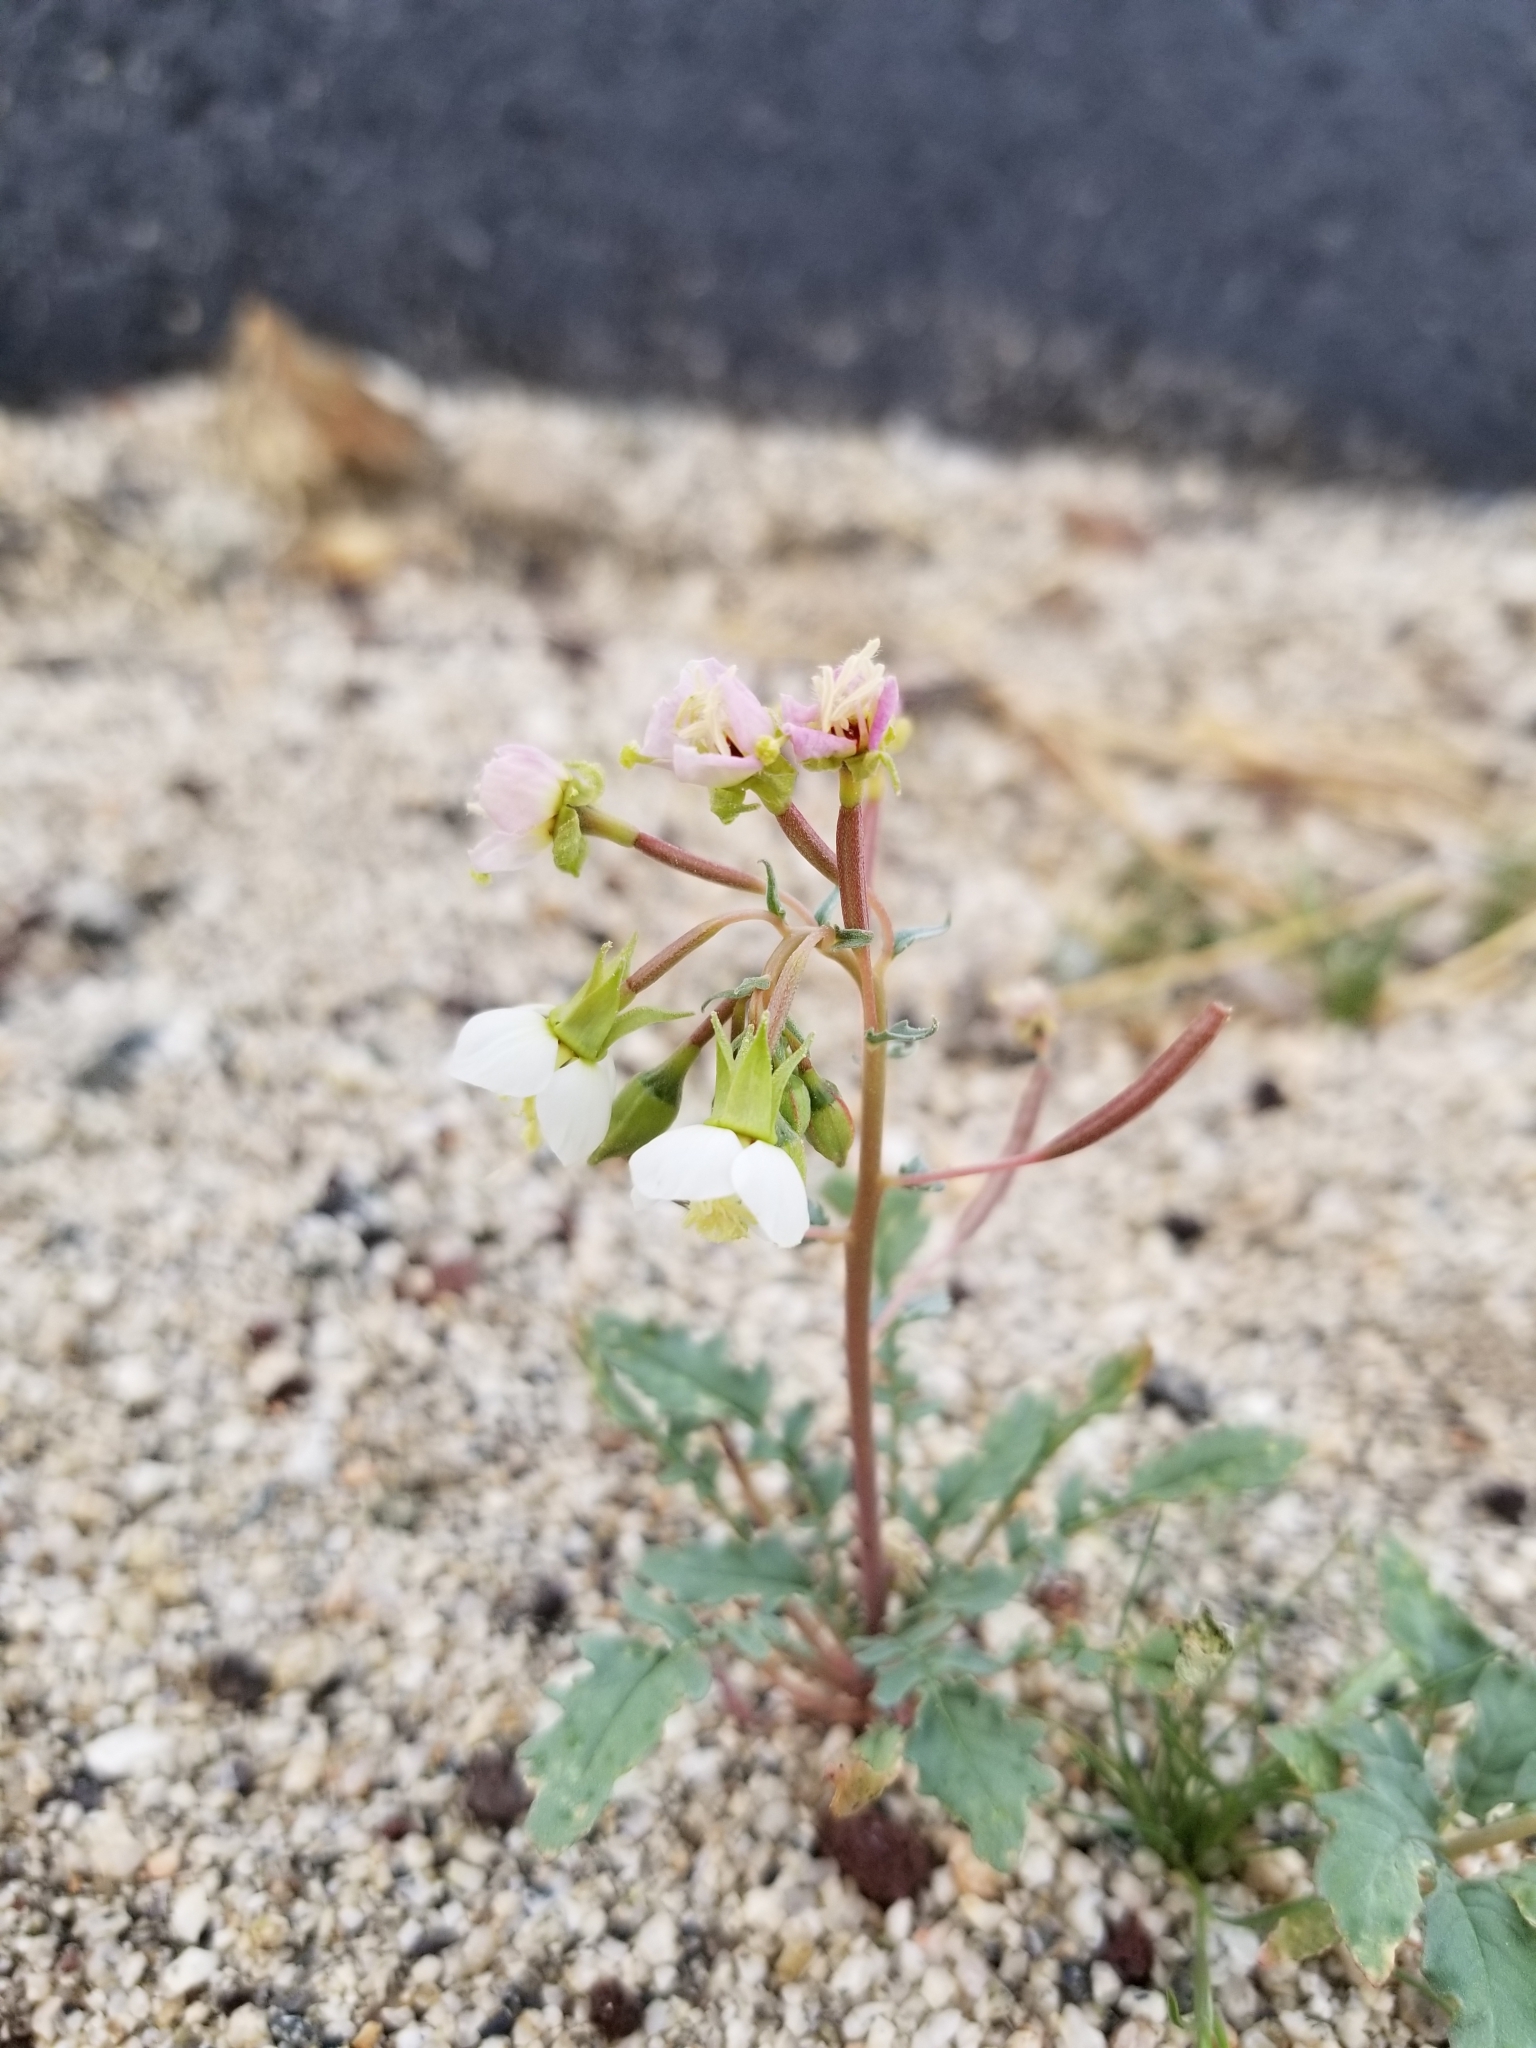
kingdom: Plantae
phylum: Tracheophyta
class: Magnoliopsida
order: Myrtales
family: Onagraceae
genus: Chylismia
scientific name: Chylismia claviformis
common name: Browneyes
